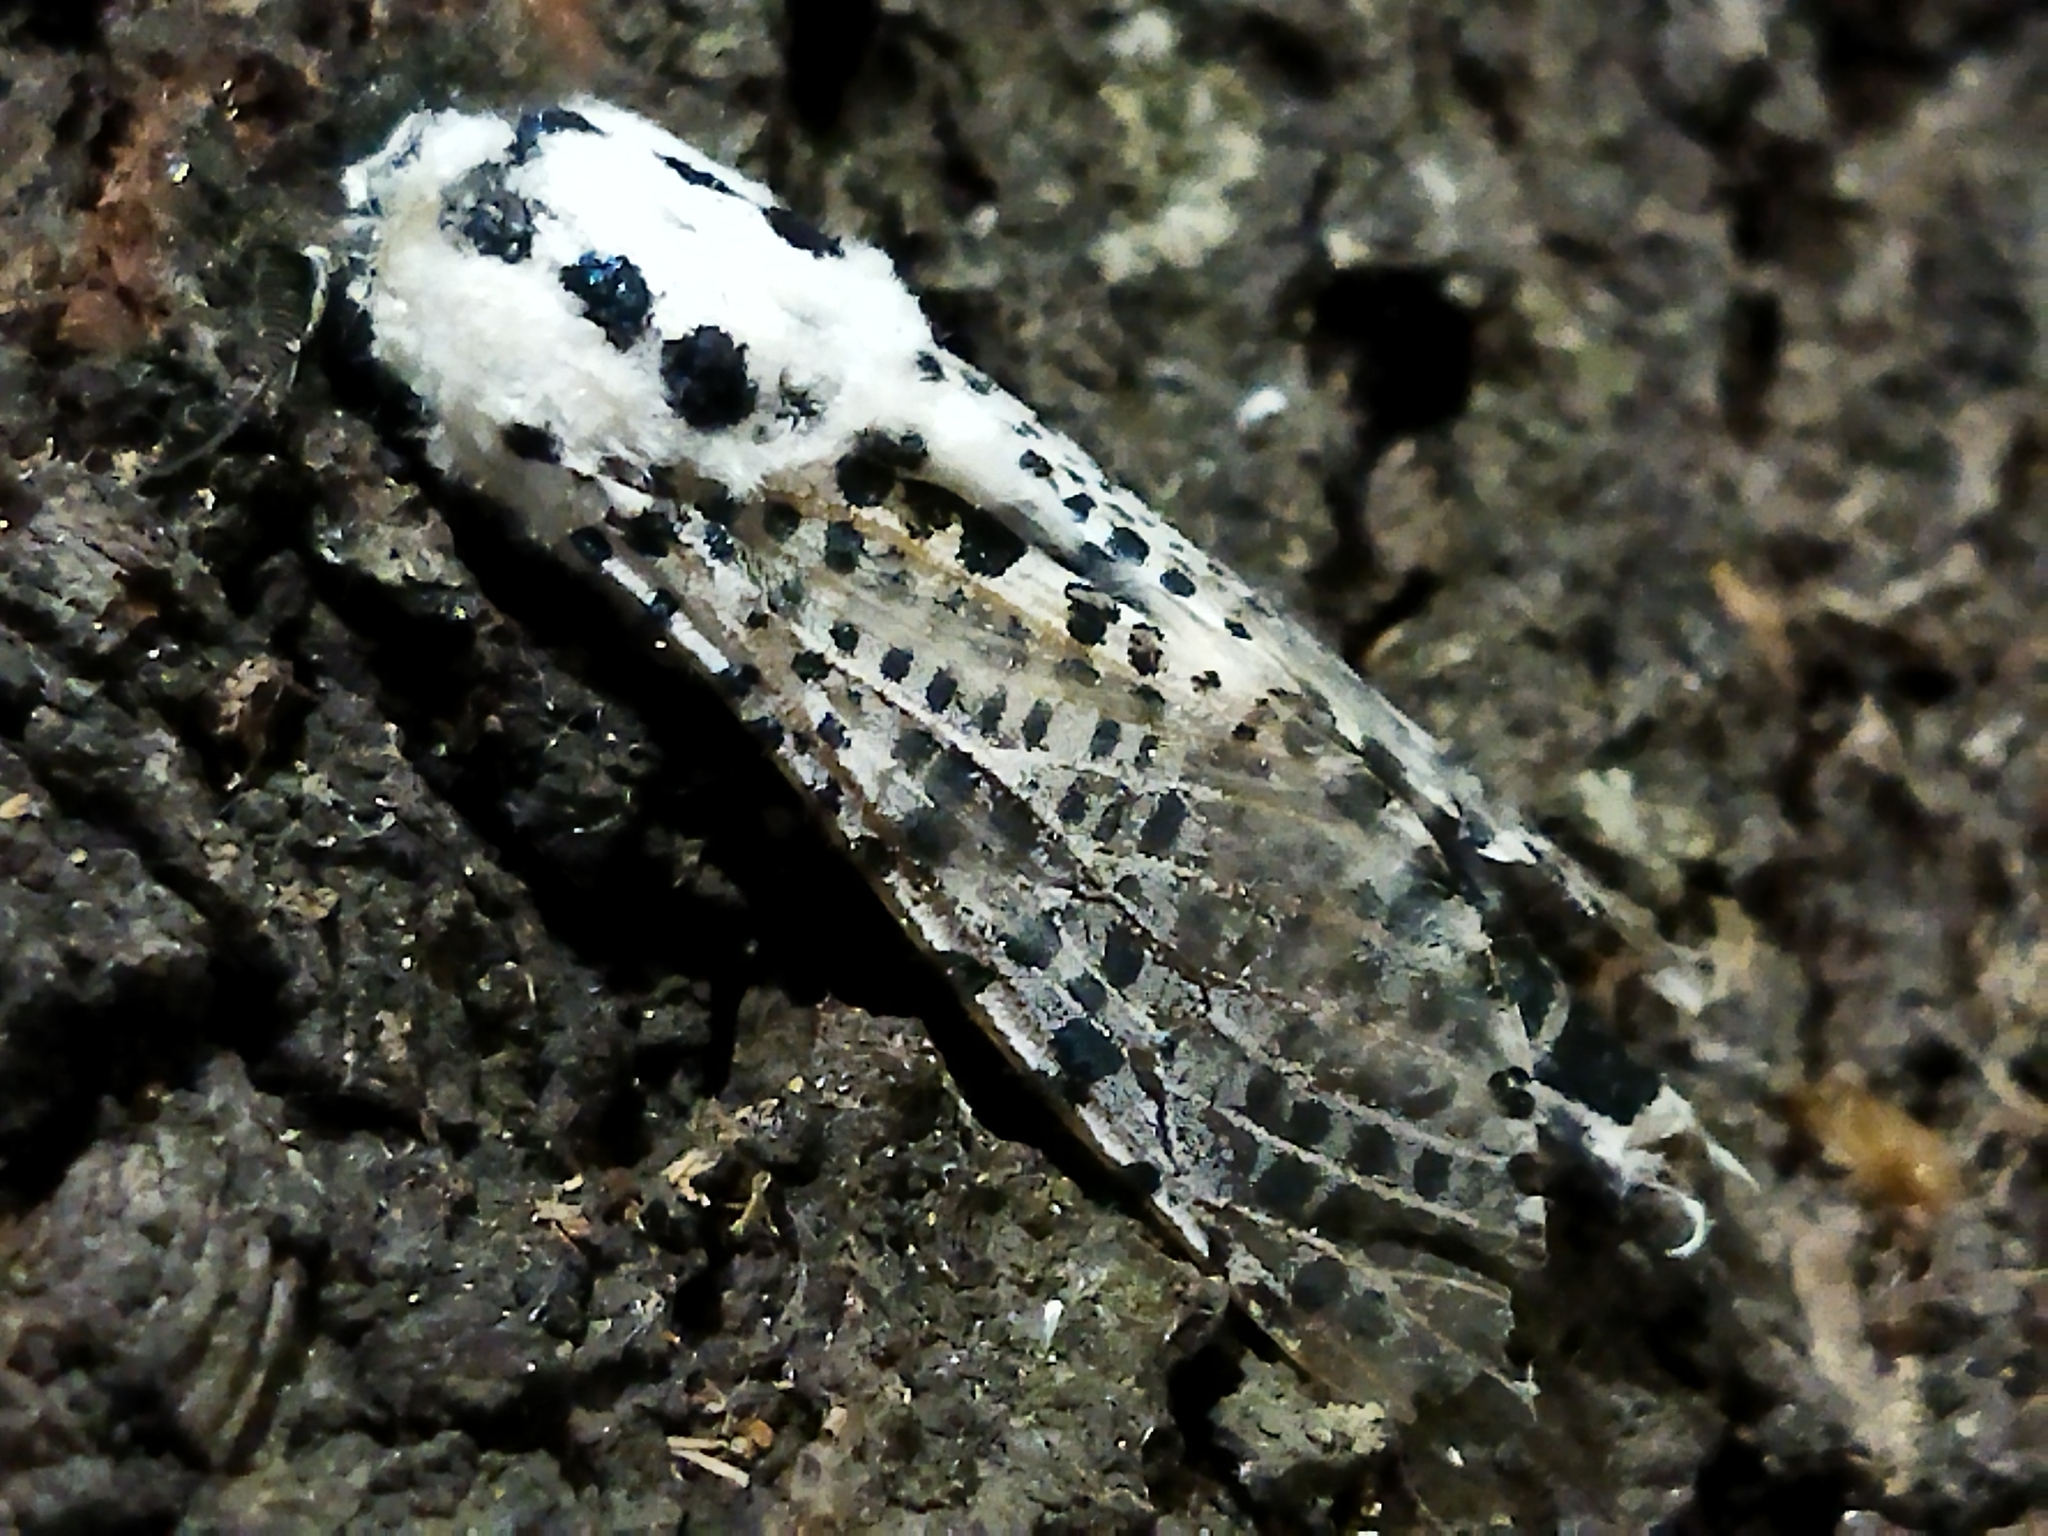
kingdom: Animalia
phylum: Arthropoda
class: Insecta
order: Lepidoptera
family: Cossidae
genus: Zeuzera
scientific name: Zeuzera pyrina
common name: Leopard moth
